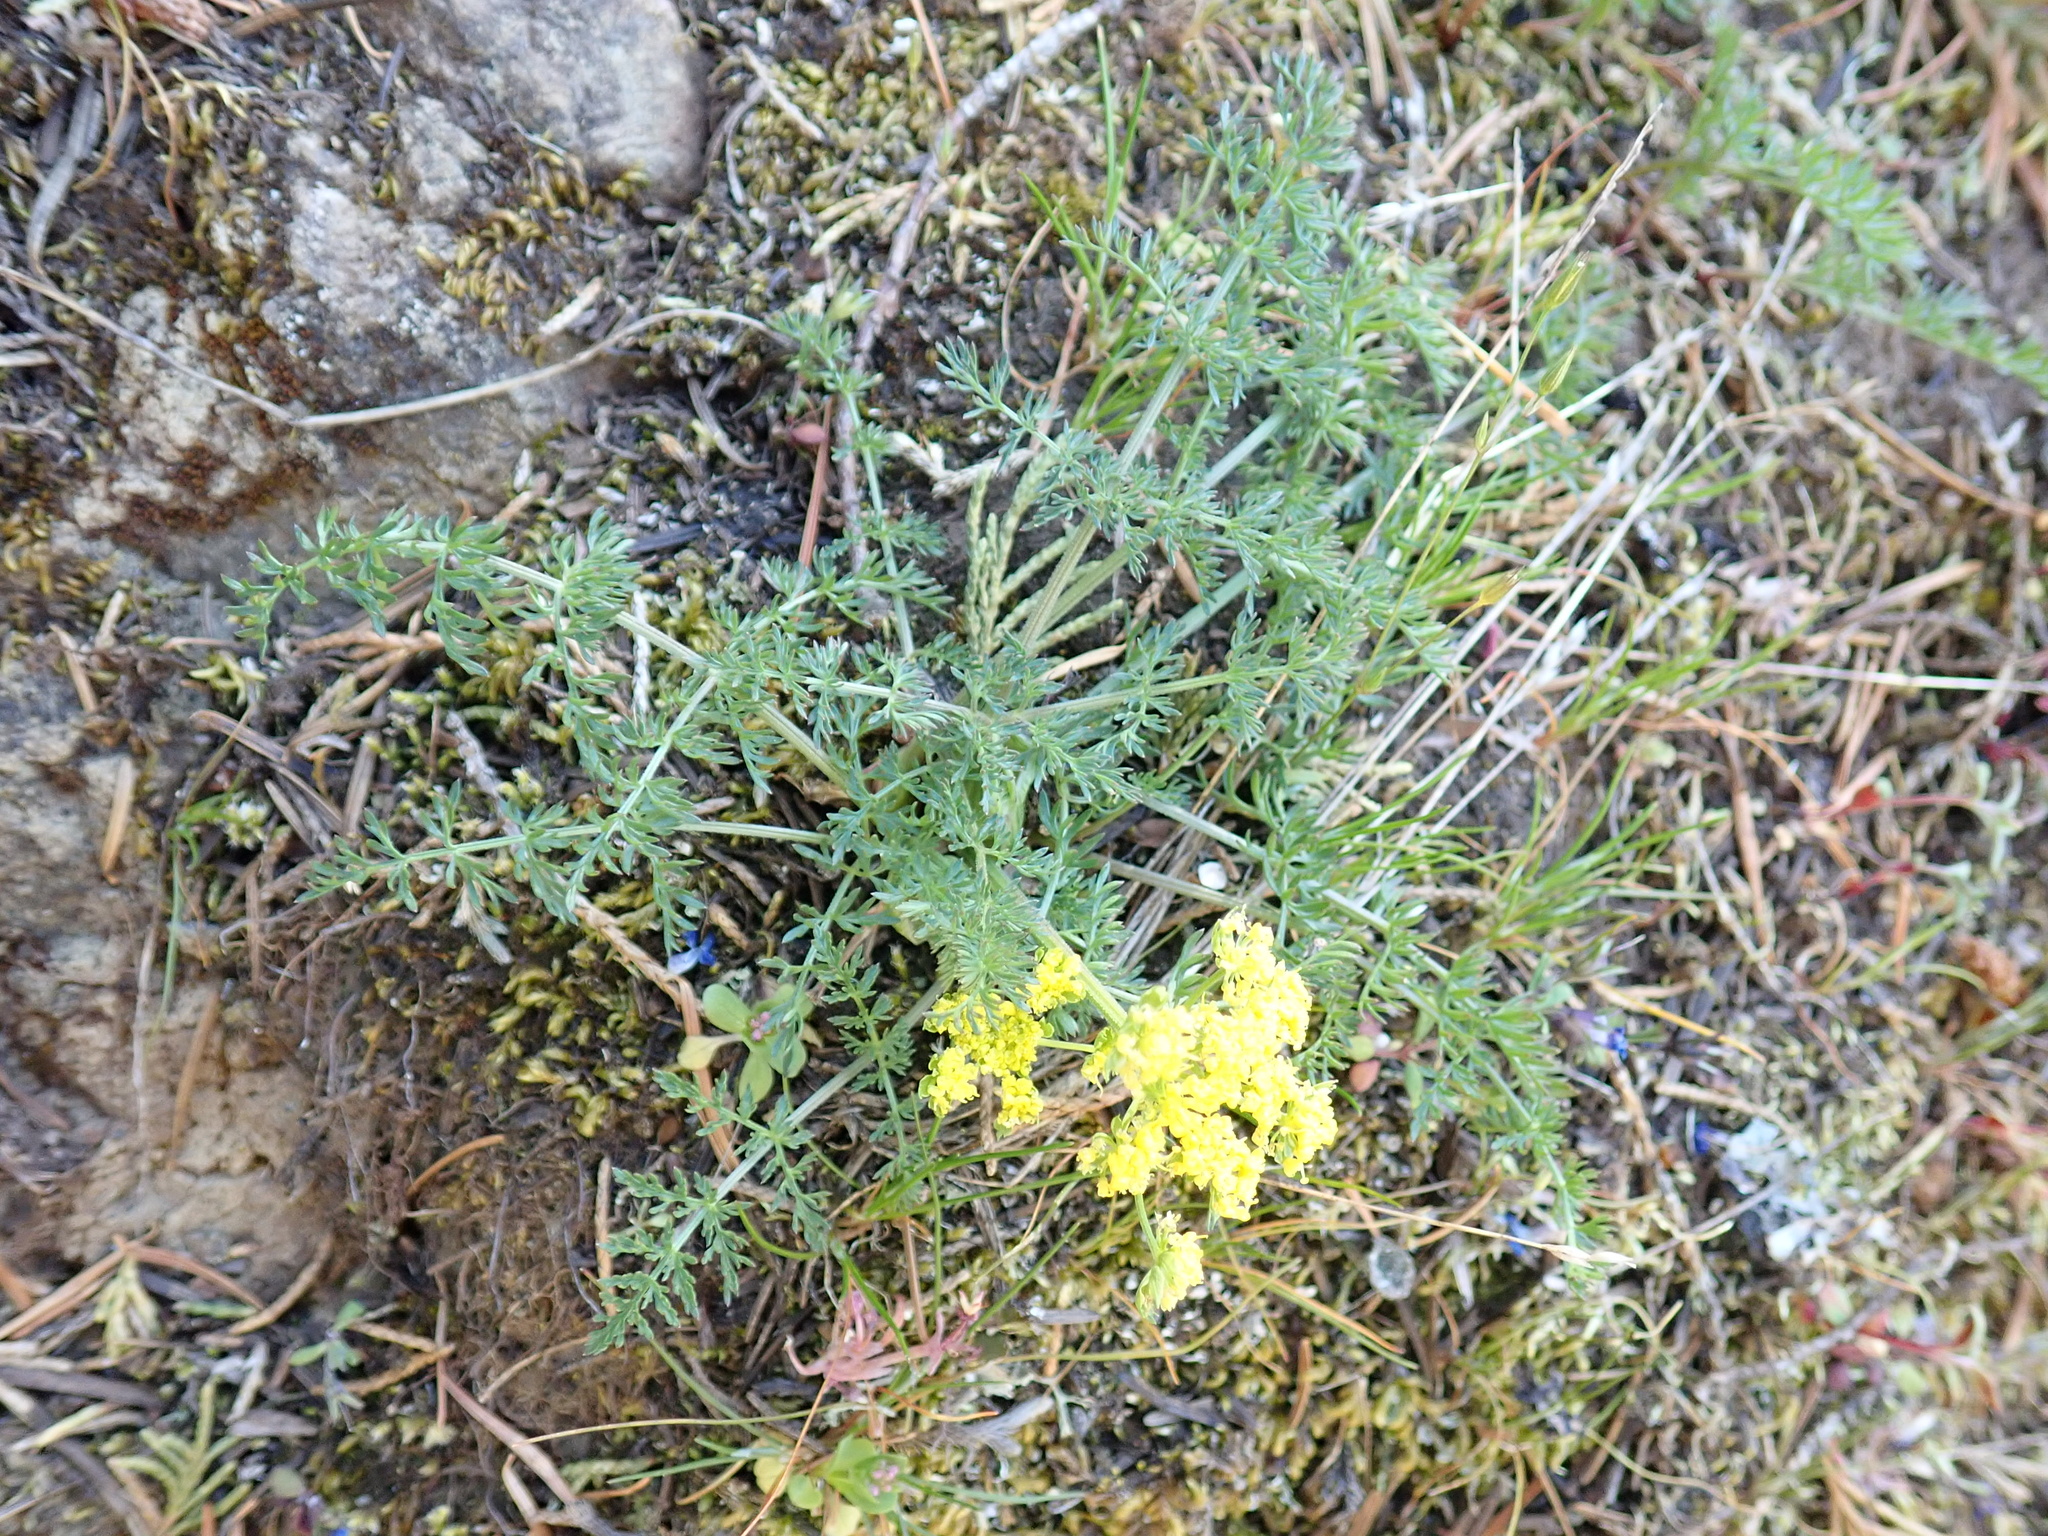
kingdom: Plantae
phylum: Tracheophyta
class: Magnoliopsida
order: Apiales
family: Apiaceae
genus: Lomatium
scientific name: Lomatium utriculatum
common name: Fine-leaf desert-parsley
